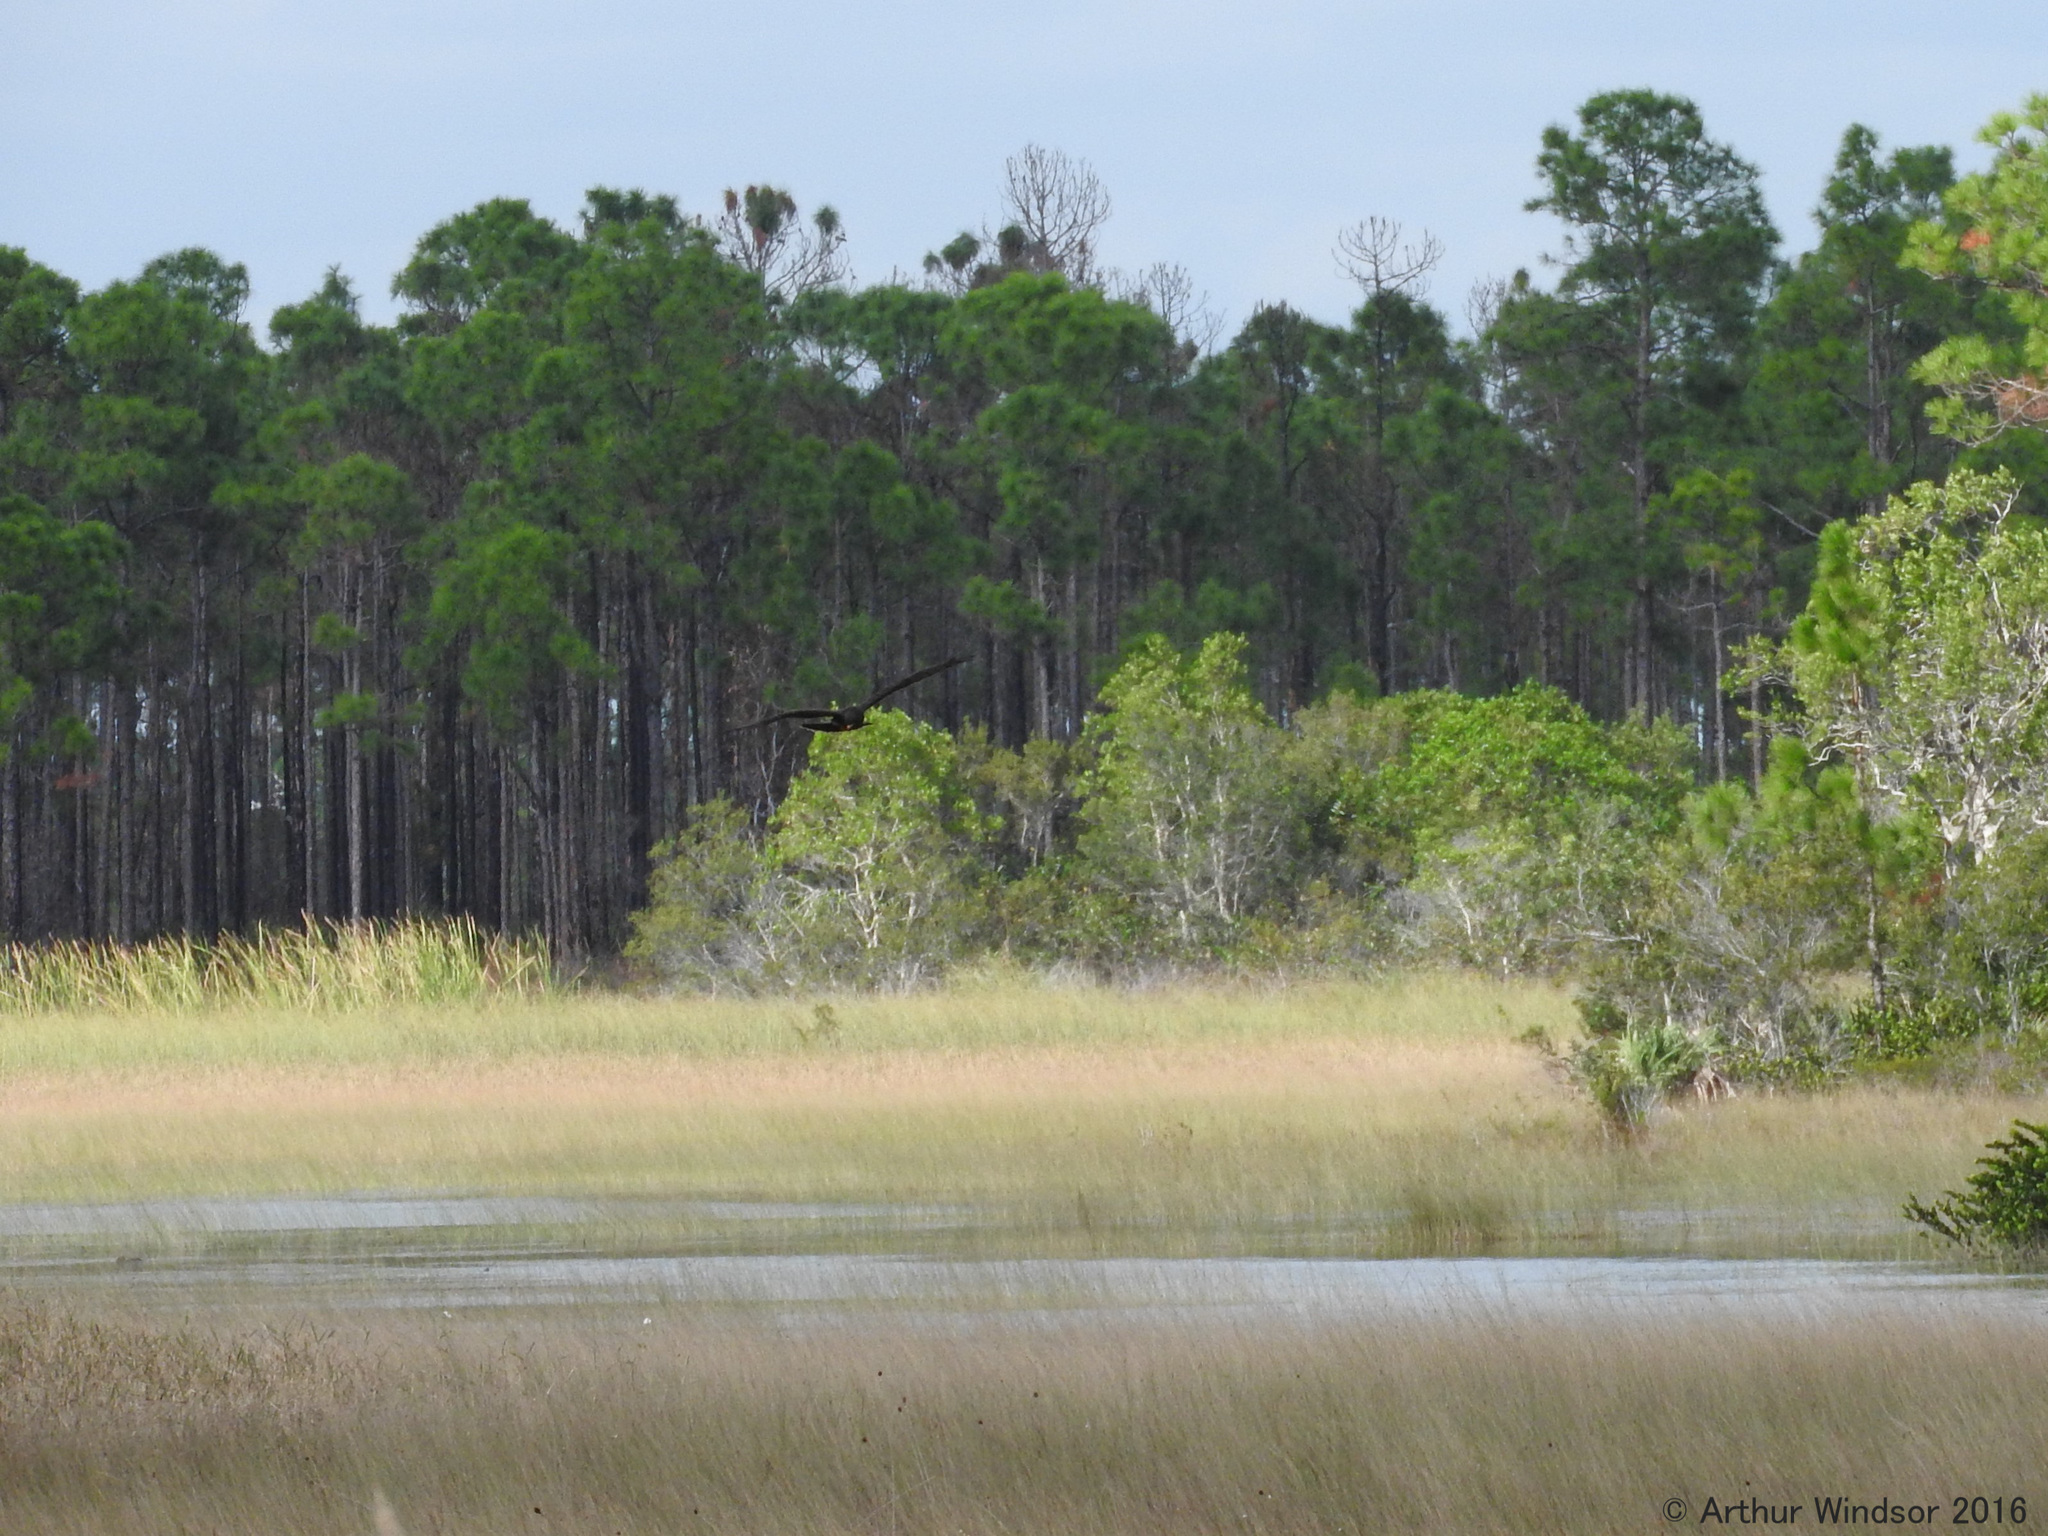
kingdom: Animalia
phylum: Chordata
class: Aves
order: Accipitriformes
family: Accipitridae
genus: Rostrhamus
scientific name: Rostrhamus sociabilis
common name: Snail kite
